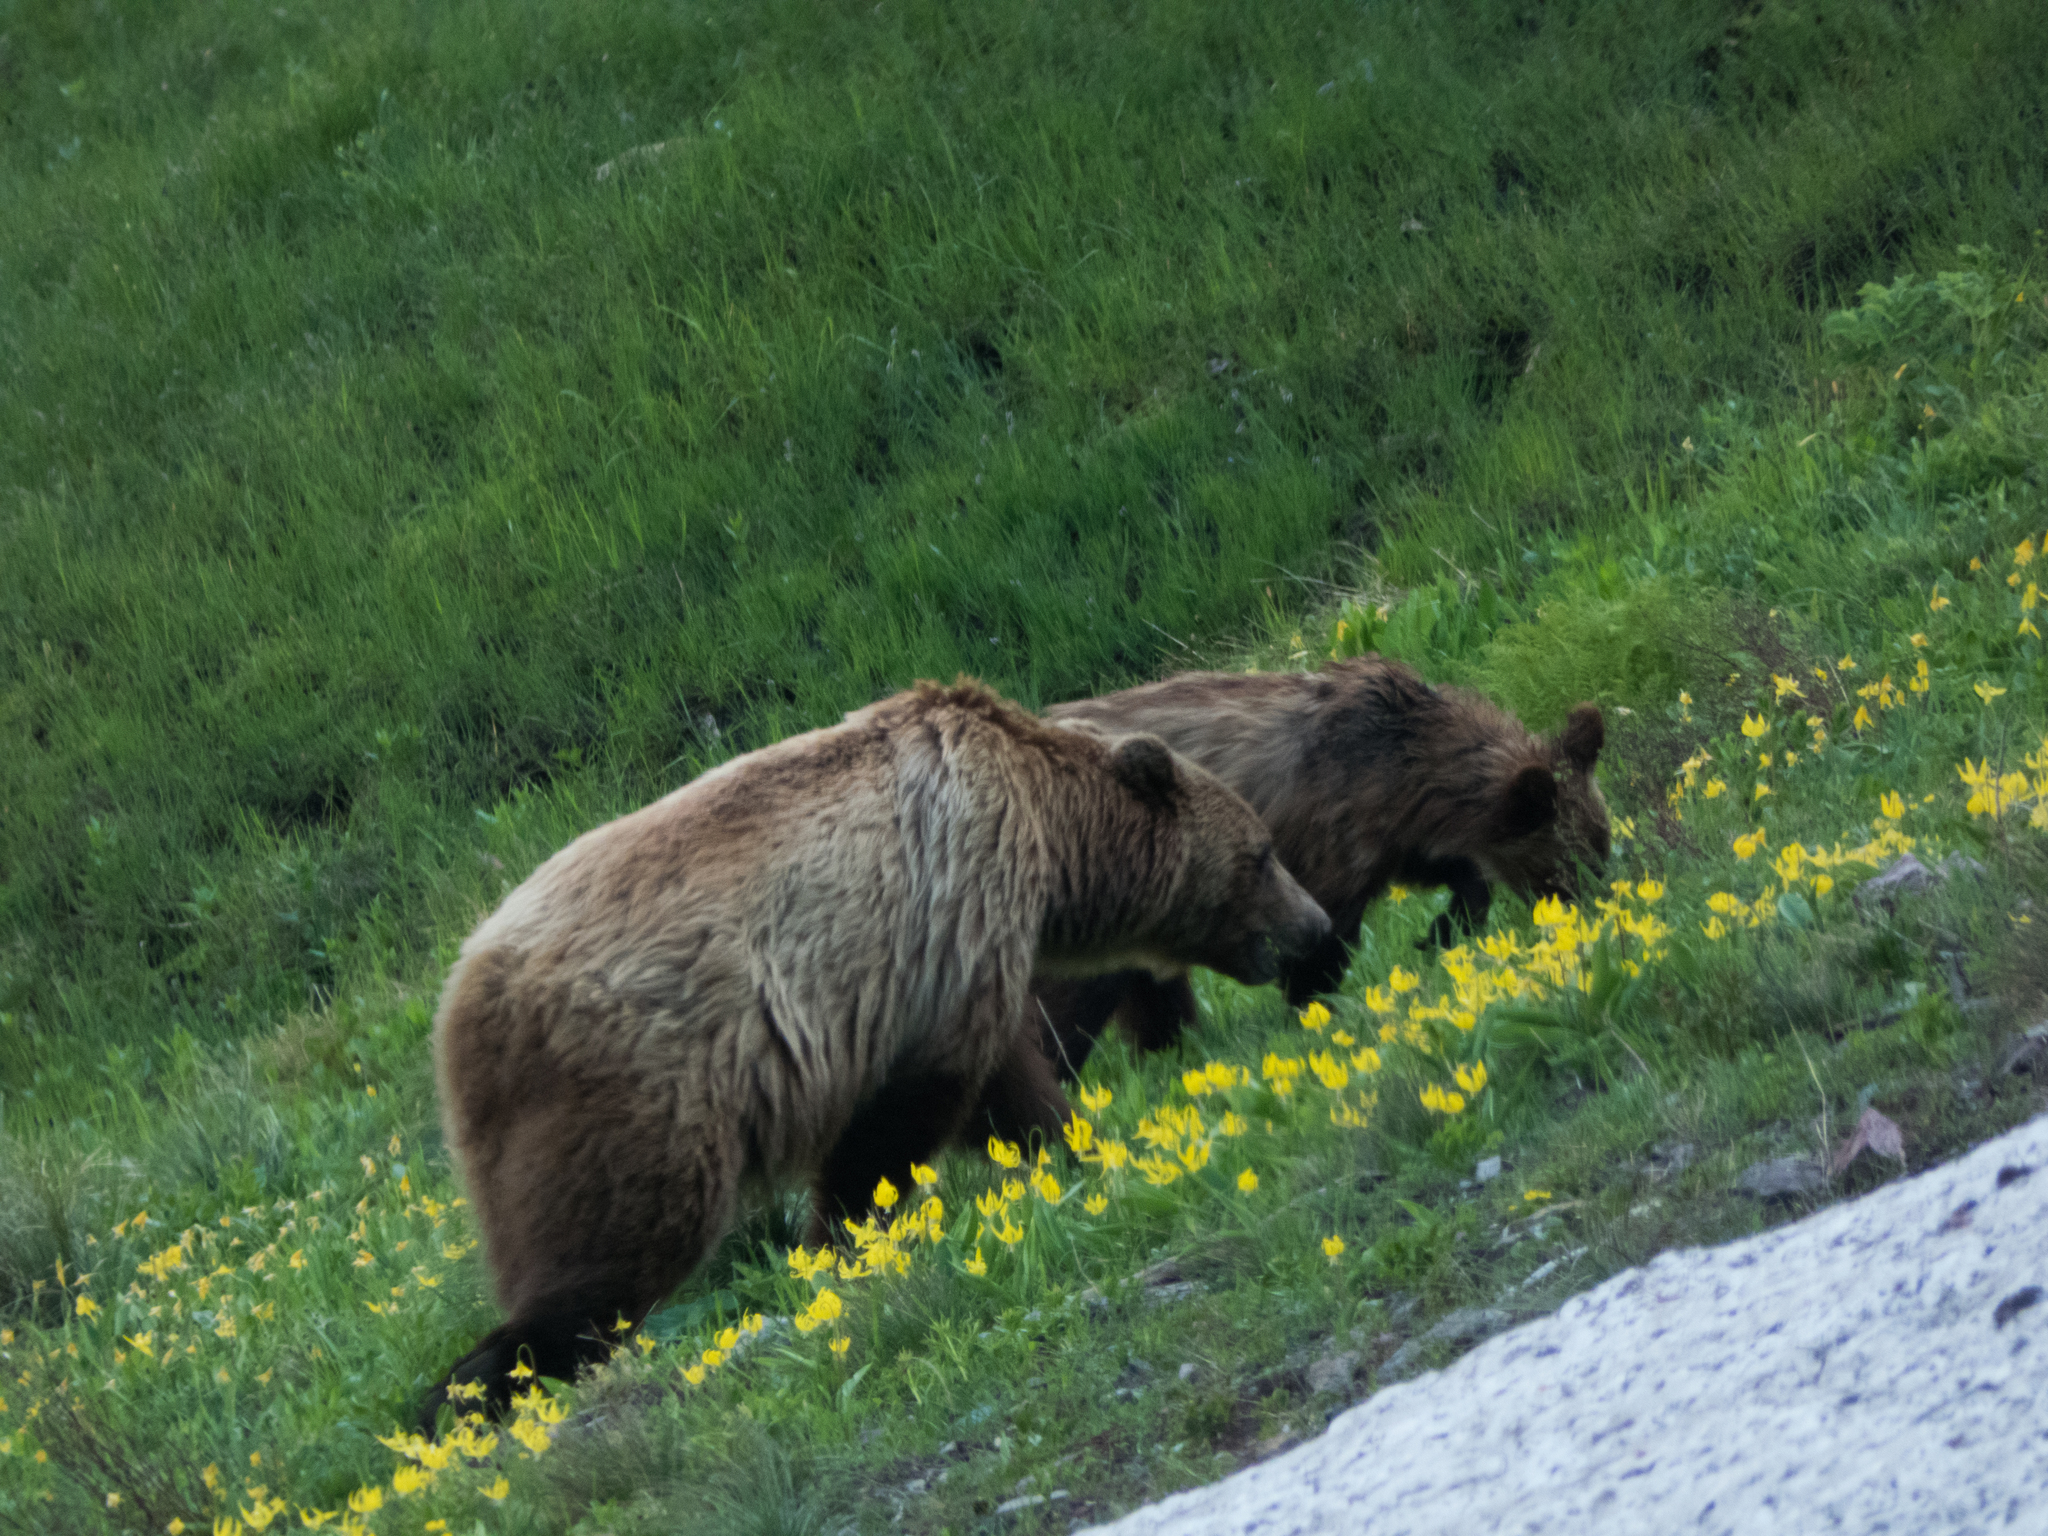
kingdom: Animalia
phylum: Chordata
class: Mammalia
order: Carnivora
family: Ursidae
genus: Ursus
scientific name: Ursus arctos
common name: Brown bear
